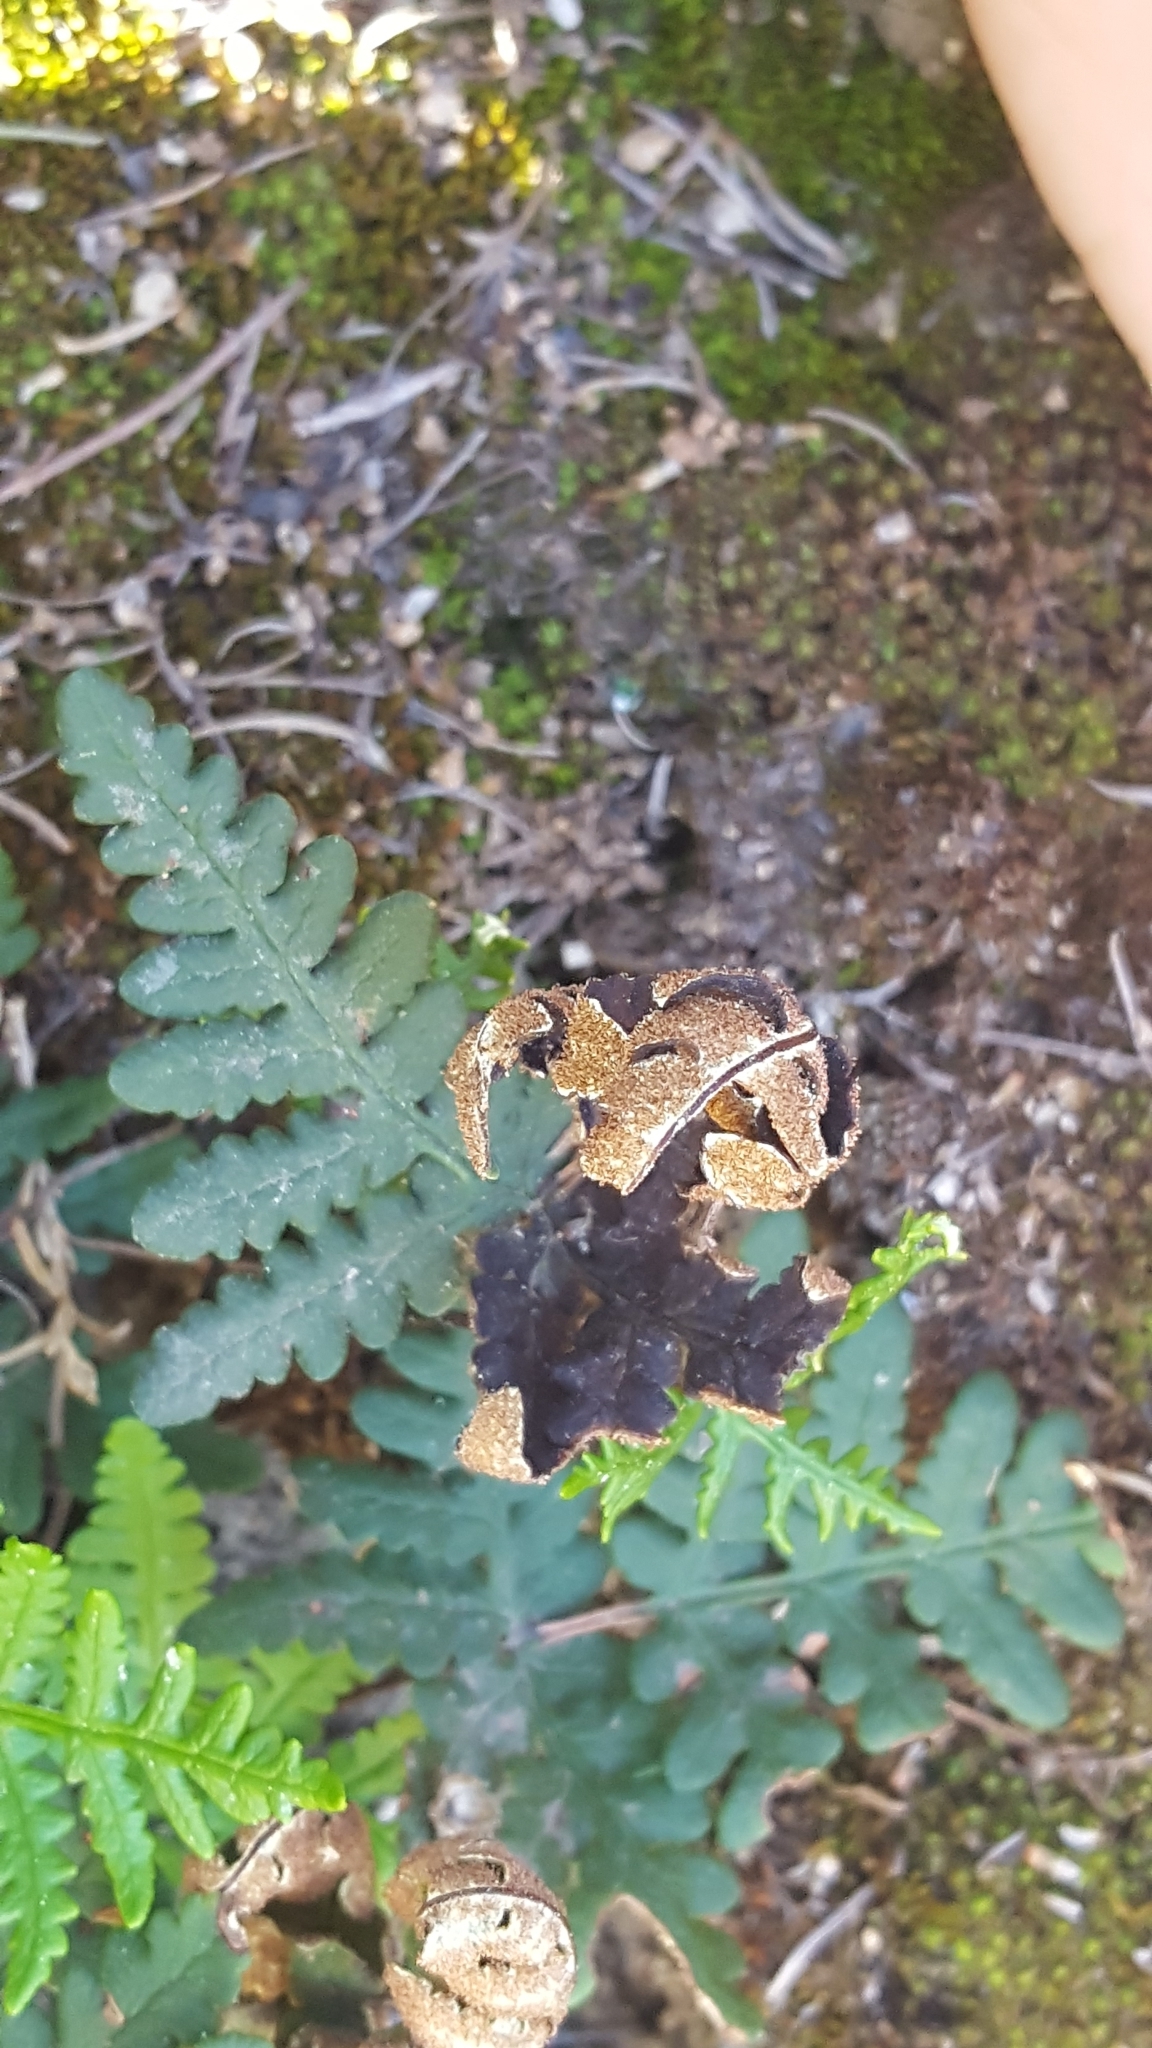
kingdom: Plantae
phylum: Tracheophyta
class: Polypodiopsida
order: Polypodiales
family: Pteridaceae
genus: Pentagramma
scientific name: Pentagramma triangularis
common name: Gold fern
